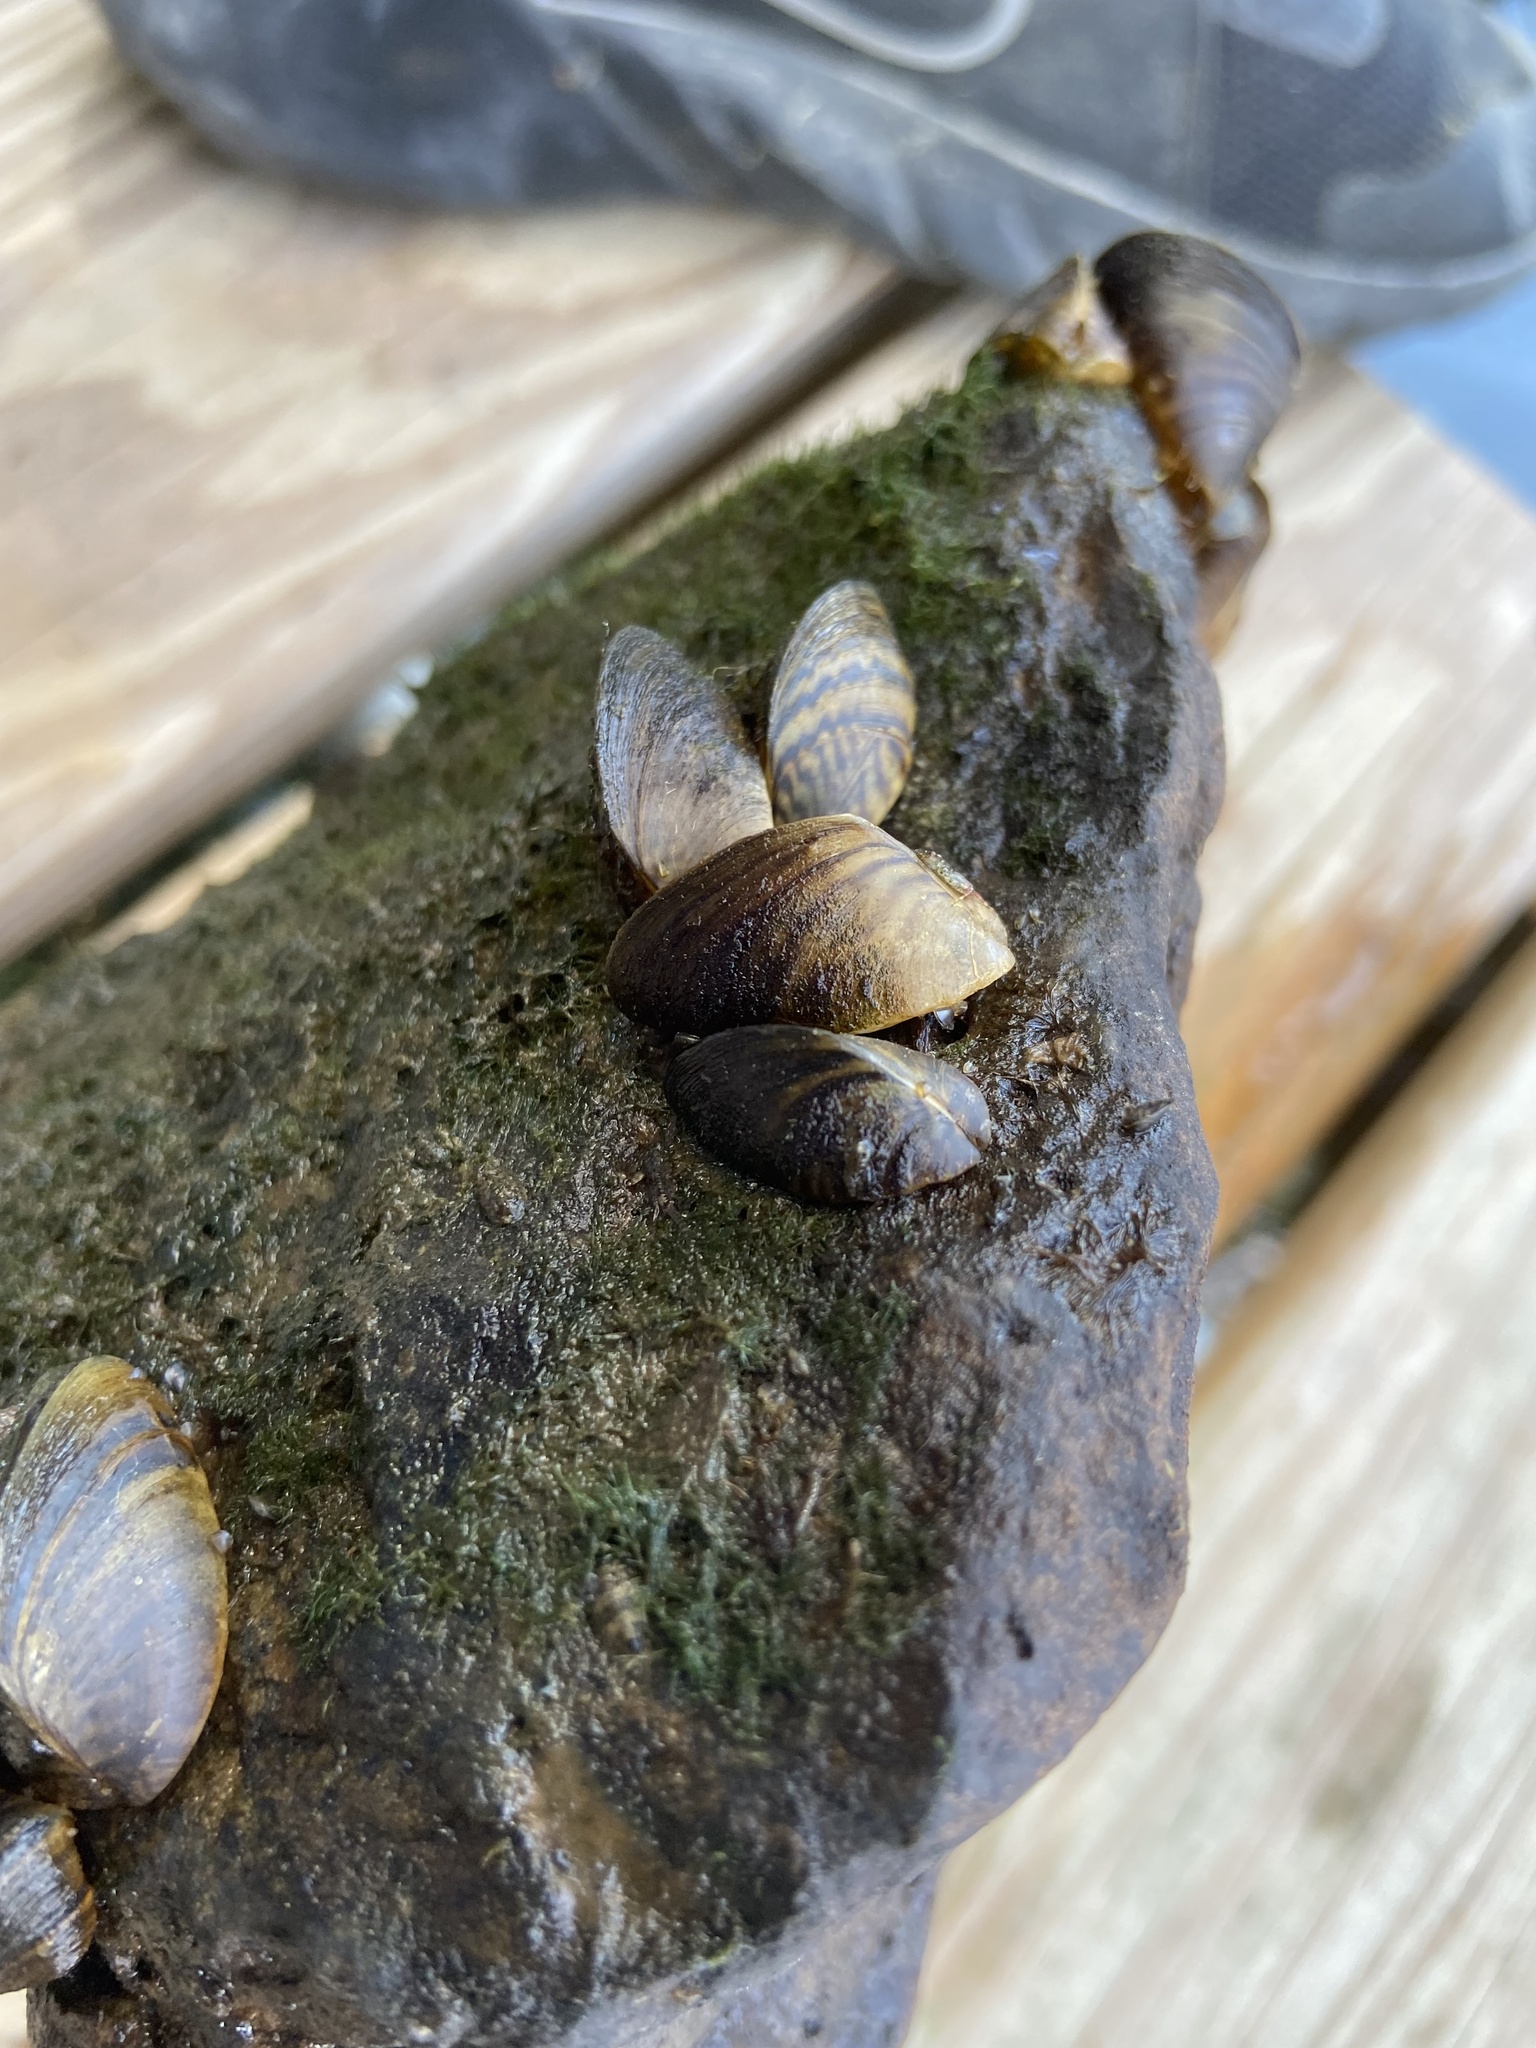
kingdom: Animalia
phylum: Mollusca
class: Bivalvia
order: Myida
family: Dreissenidae
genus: Dreissena
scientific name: Dreissena polymorpha
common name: Zebra mussel
